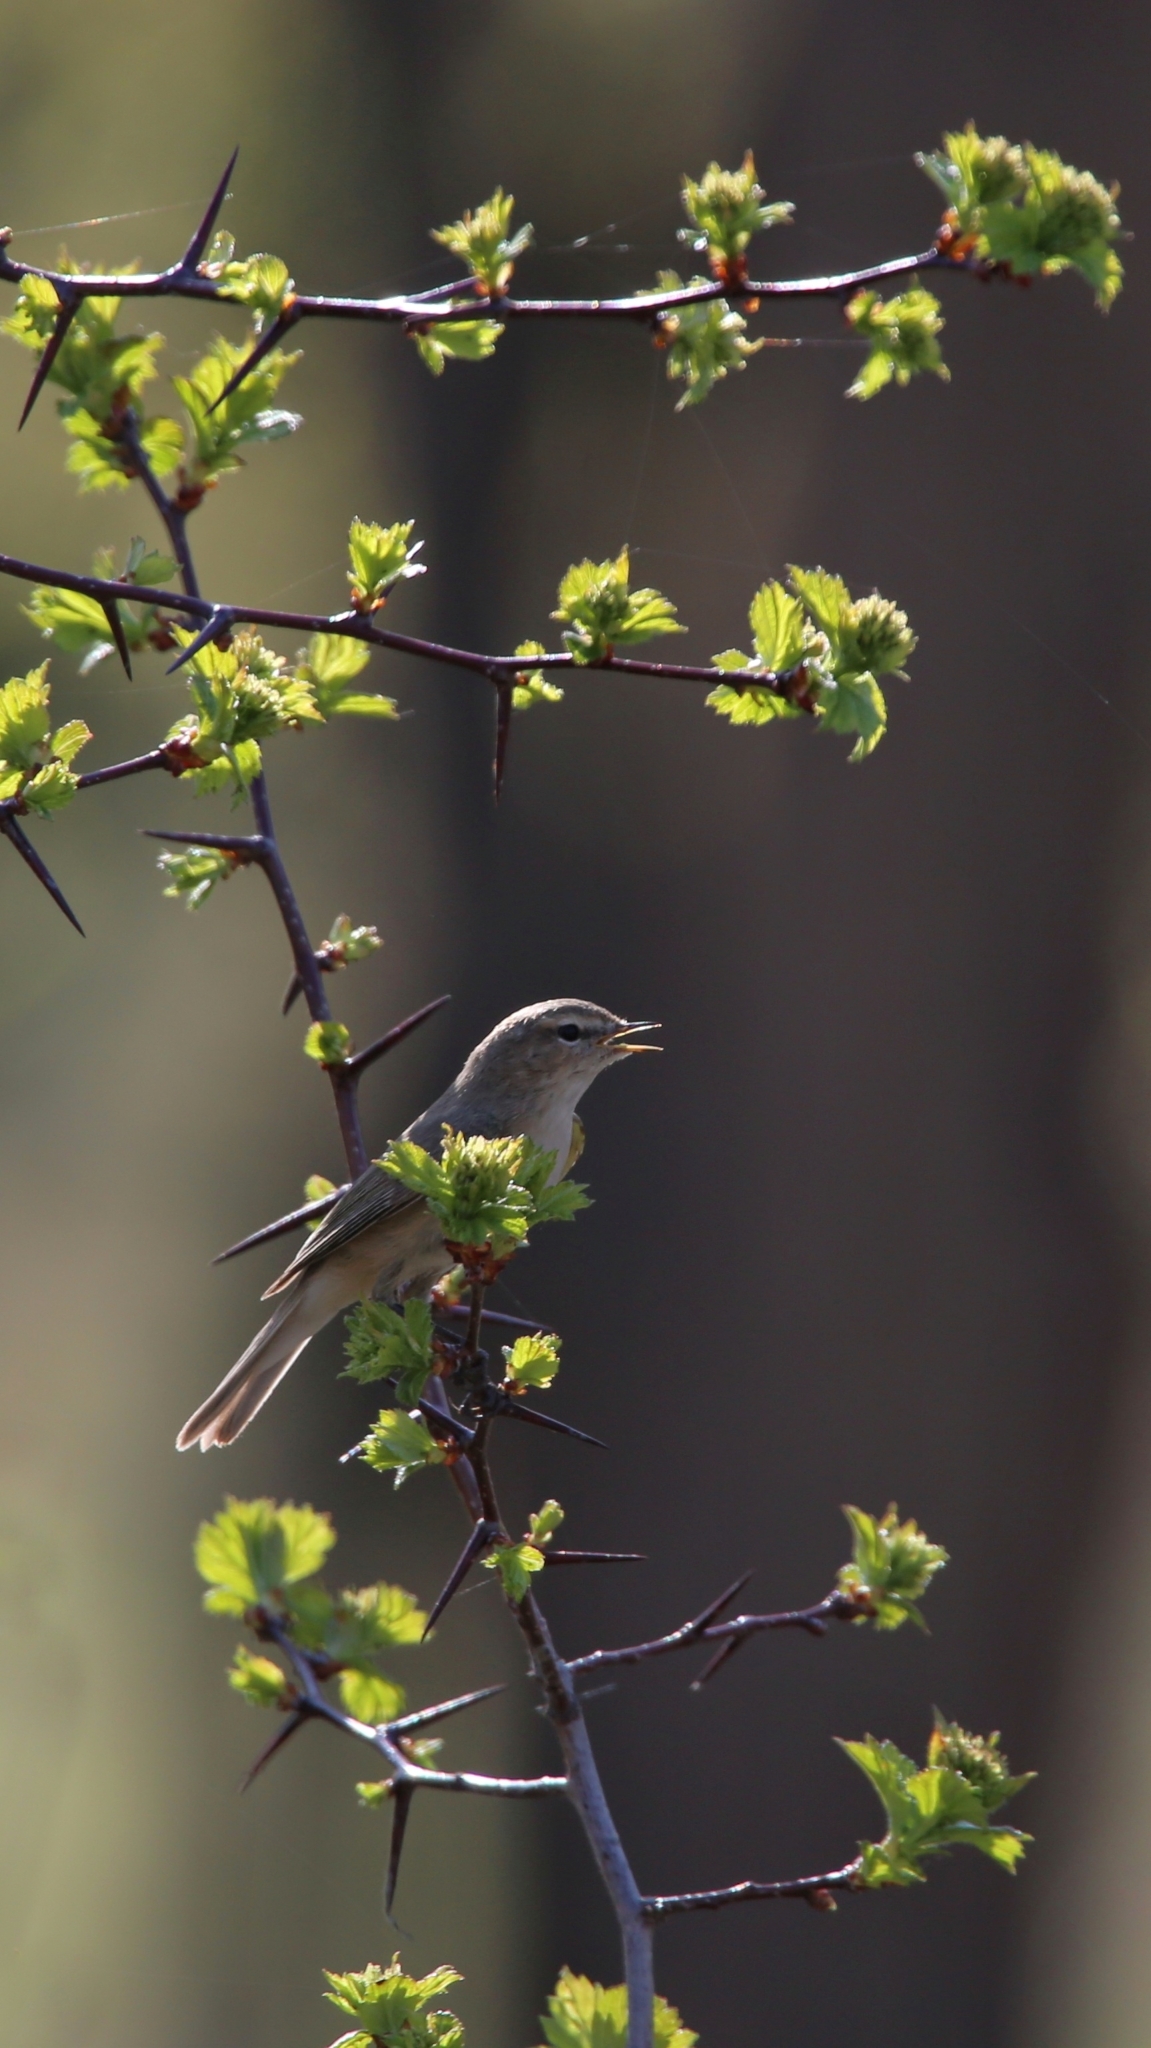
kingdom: Animalia
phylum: Chordata
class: Aves
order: Passeriformes
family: Phylloscopidae
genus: Phylloscopus
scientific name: Phylloscopus collybita
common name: Common chiffchaff
